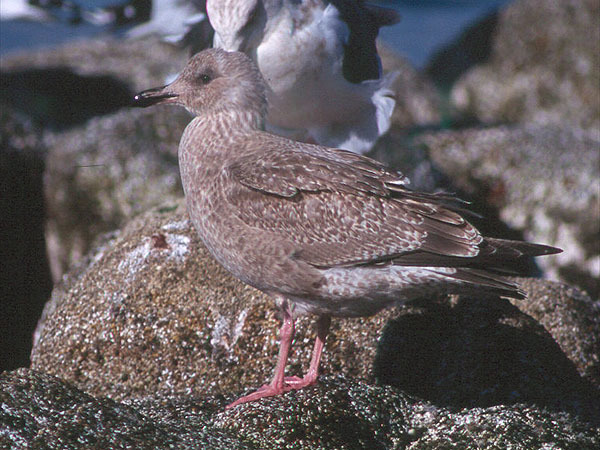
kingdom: Animalia
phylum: Chordata
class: Aves
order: Charadriiformes
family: Laridae
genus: Larus
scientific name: Larus schistisagus
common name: Slaty-backed gull
